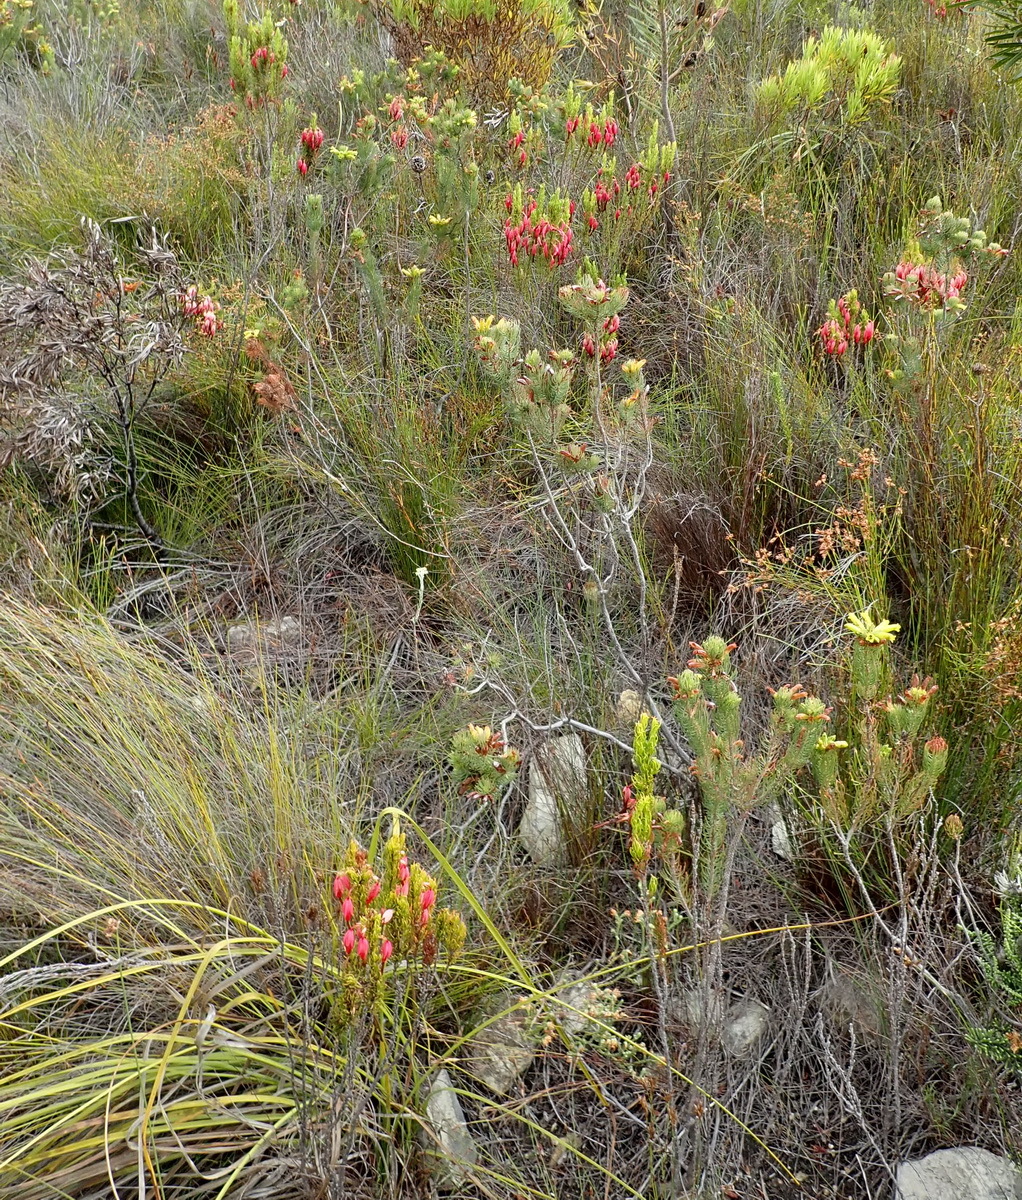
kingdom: Plantae
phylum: Tracheophyta
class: Magnoliopsida
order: Ericales
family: Ericaceae
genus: Erica
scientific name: Erica plukenetii
